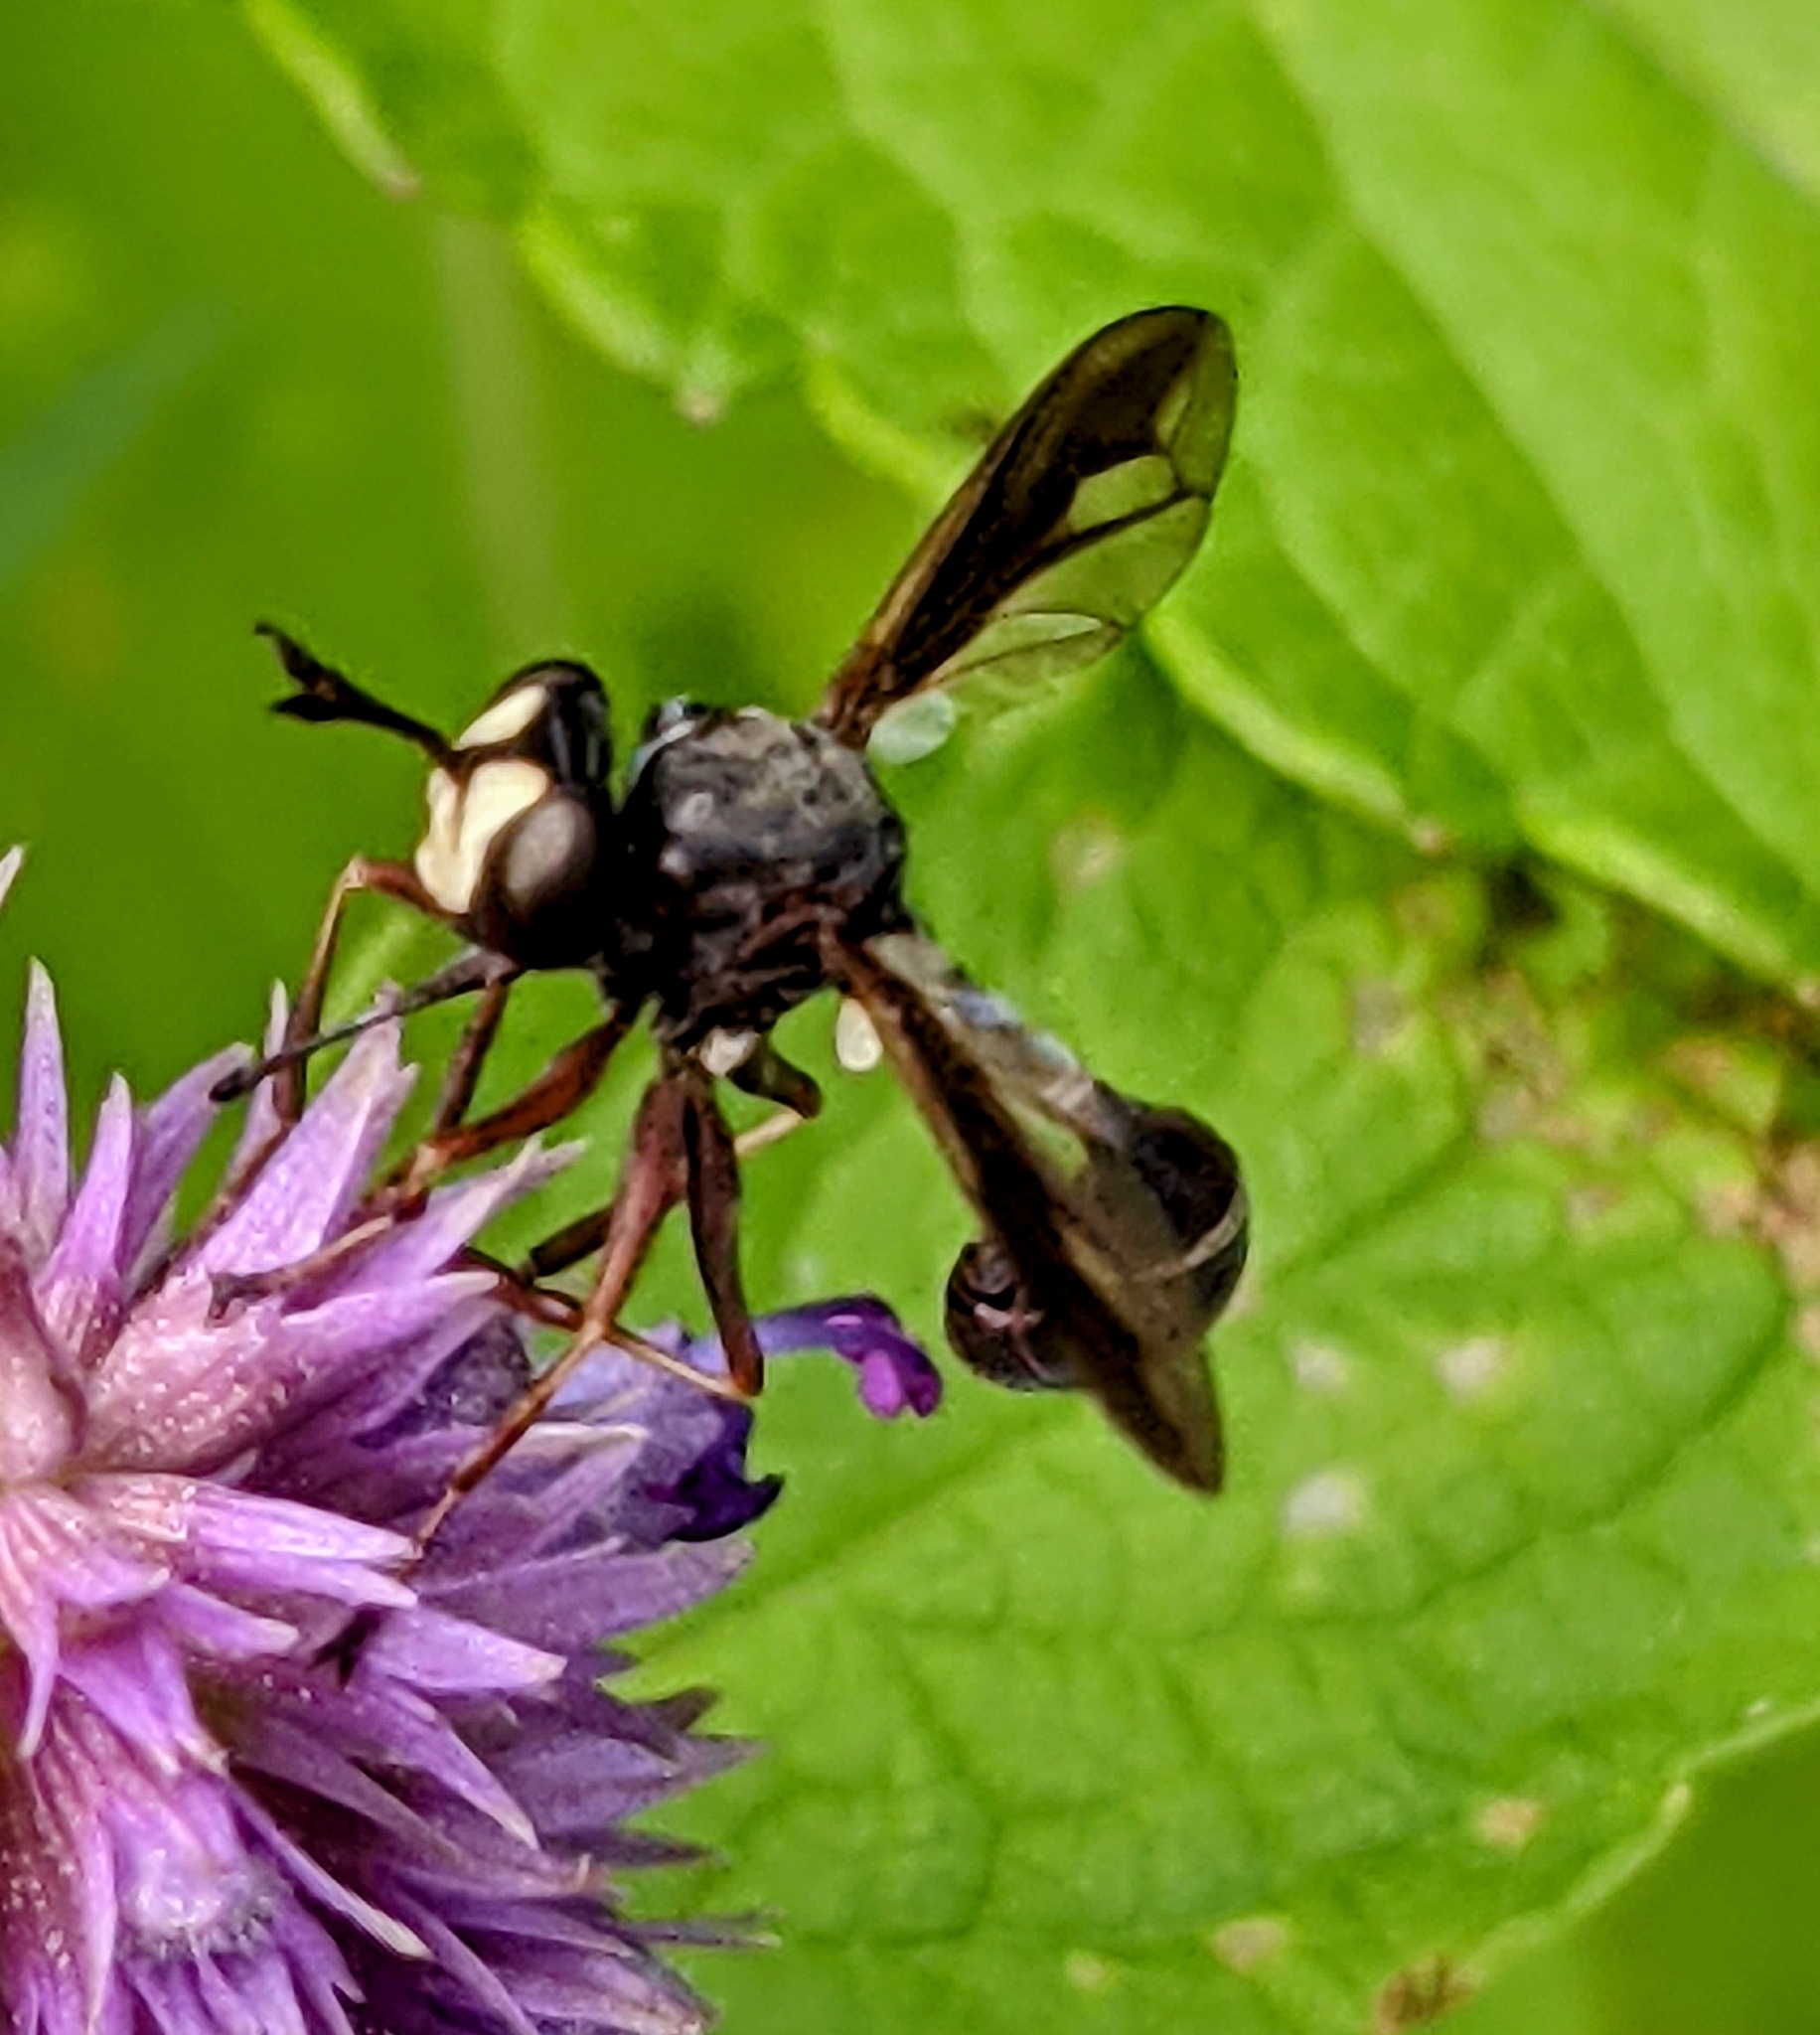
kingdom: Animalia
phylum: Arthropoda
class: Insecta
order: Diptera
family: Conopidae
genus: Physocephala
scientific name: Physocephala furcillata
